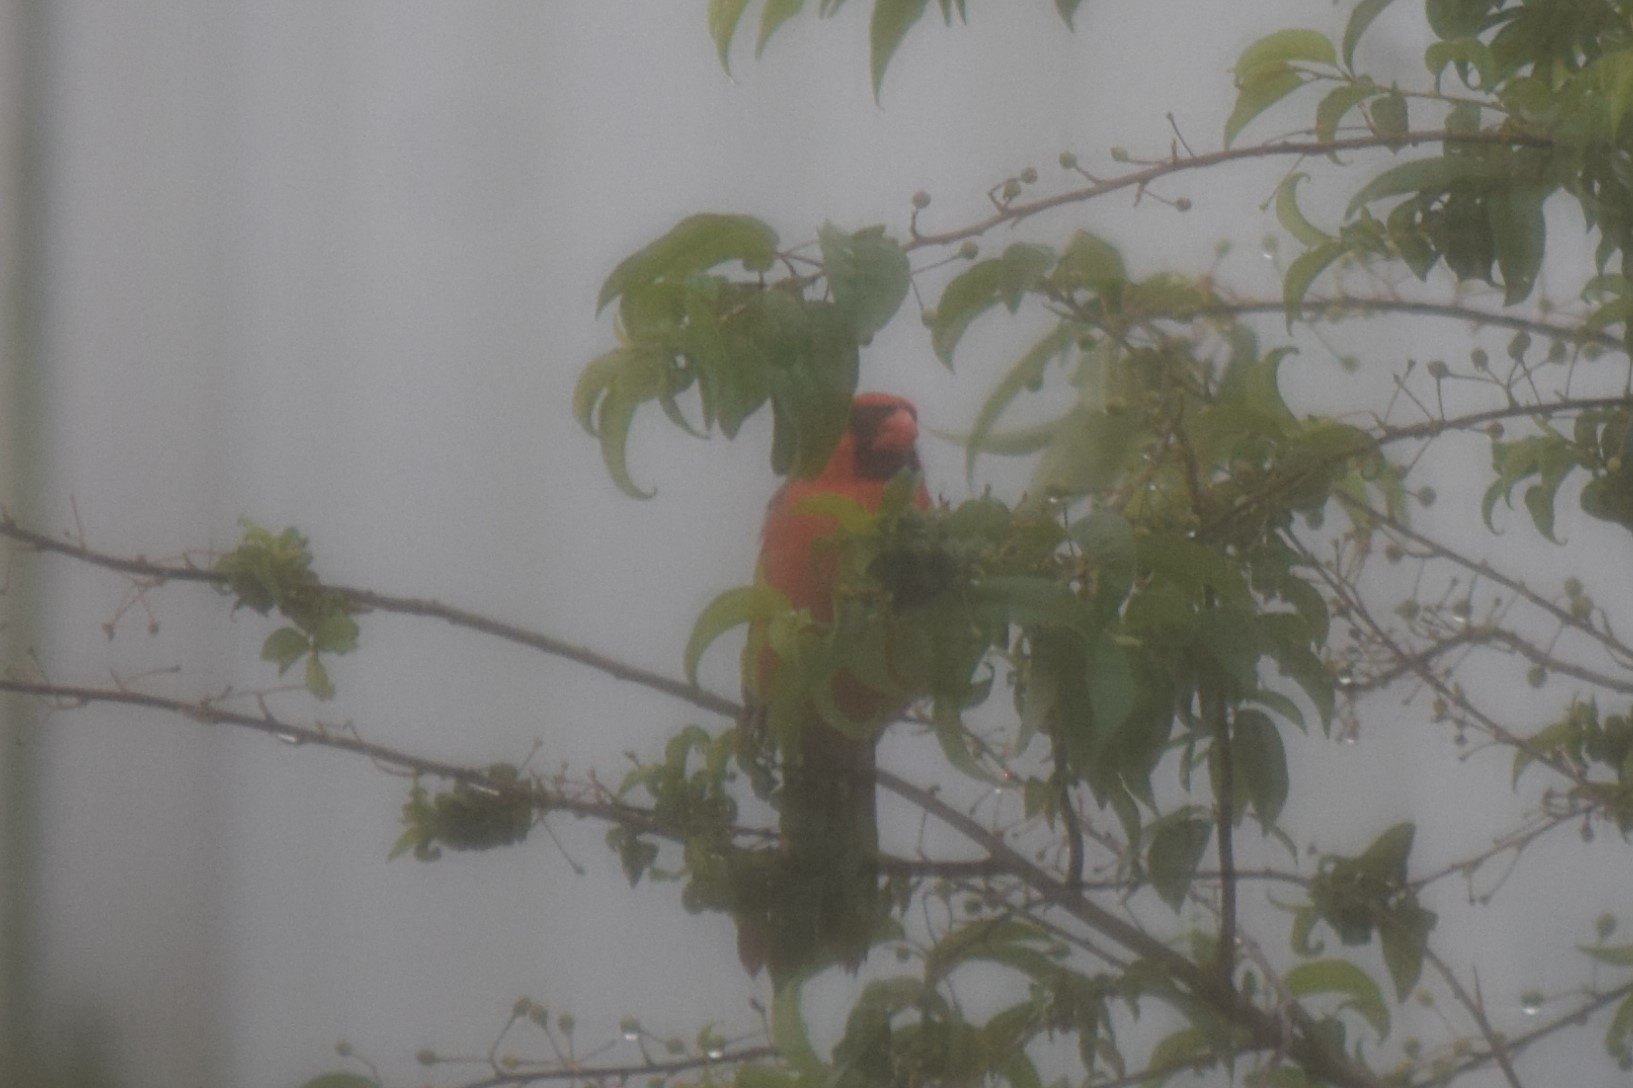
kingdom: Animalia
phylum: Chordata
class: Aves
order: Passeriformes
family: Cardinalidae
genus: Cardinalis
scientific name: Cardinalis cardinalis
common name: Northern cardinal
